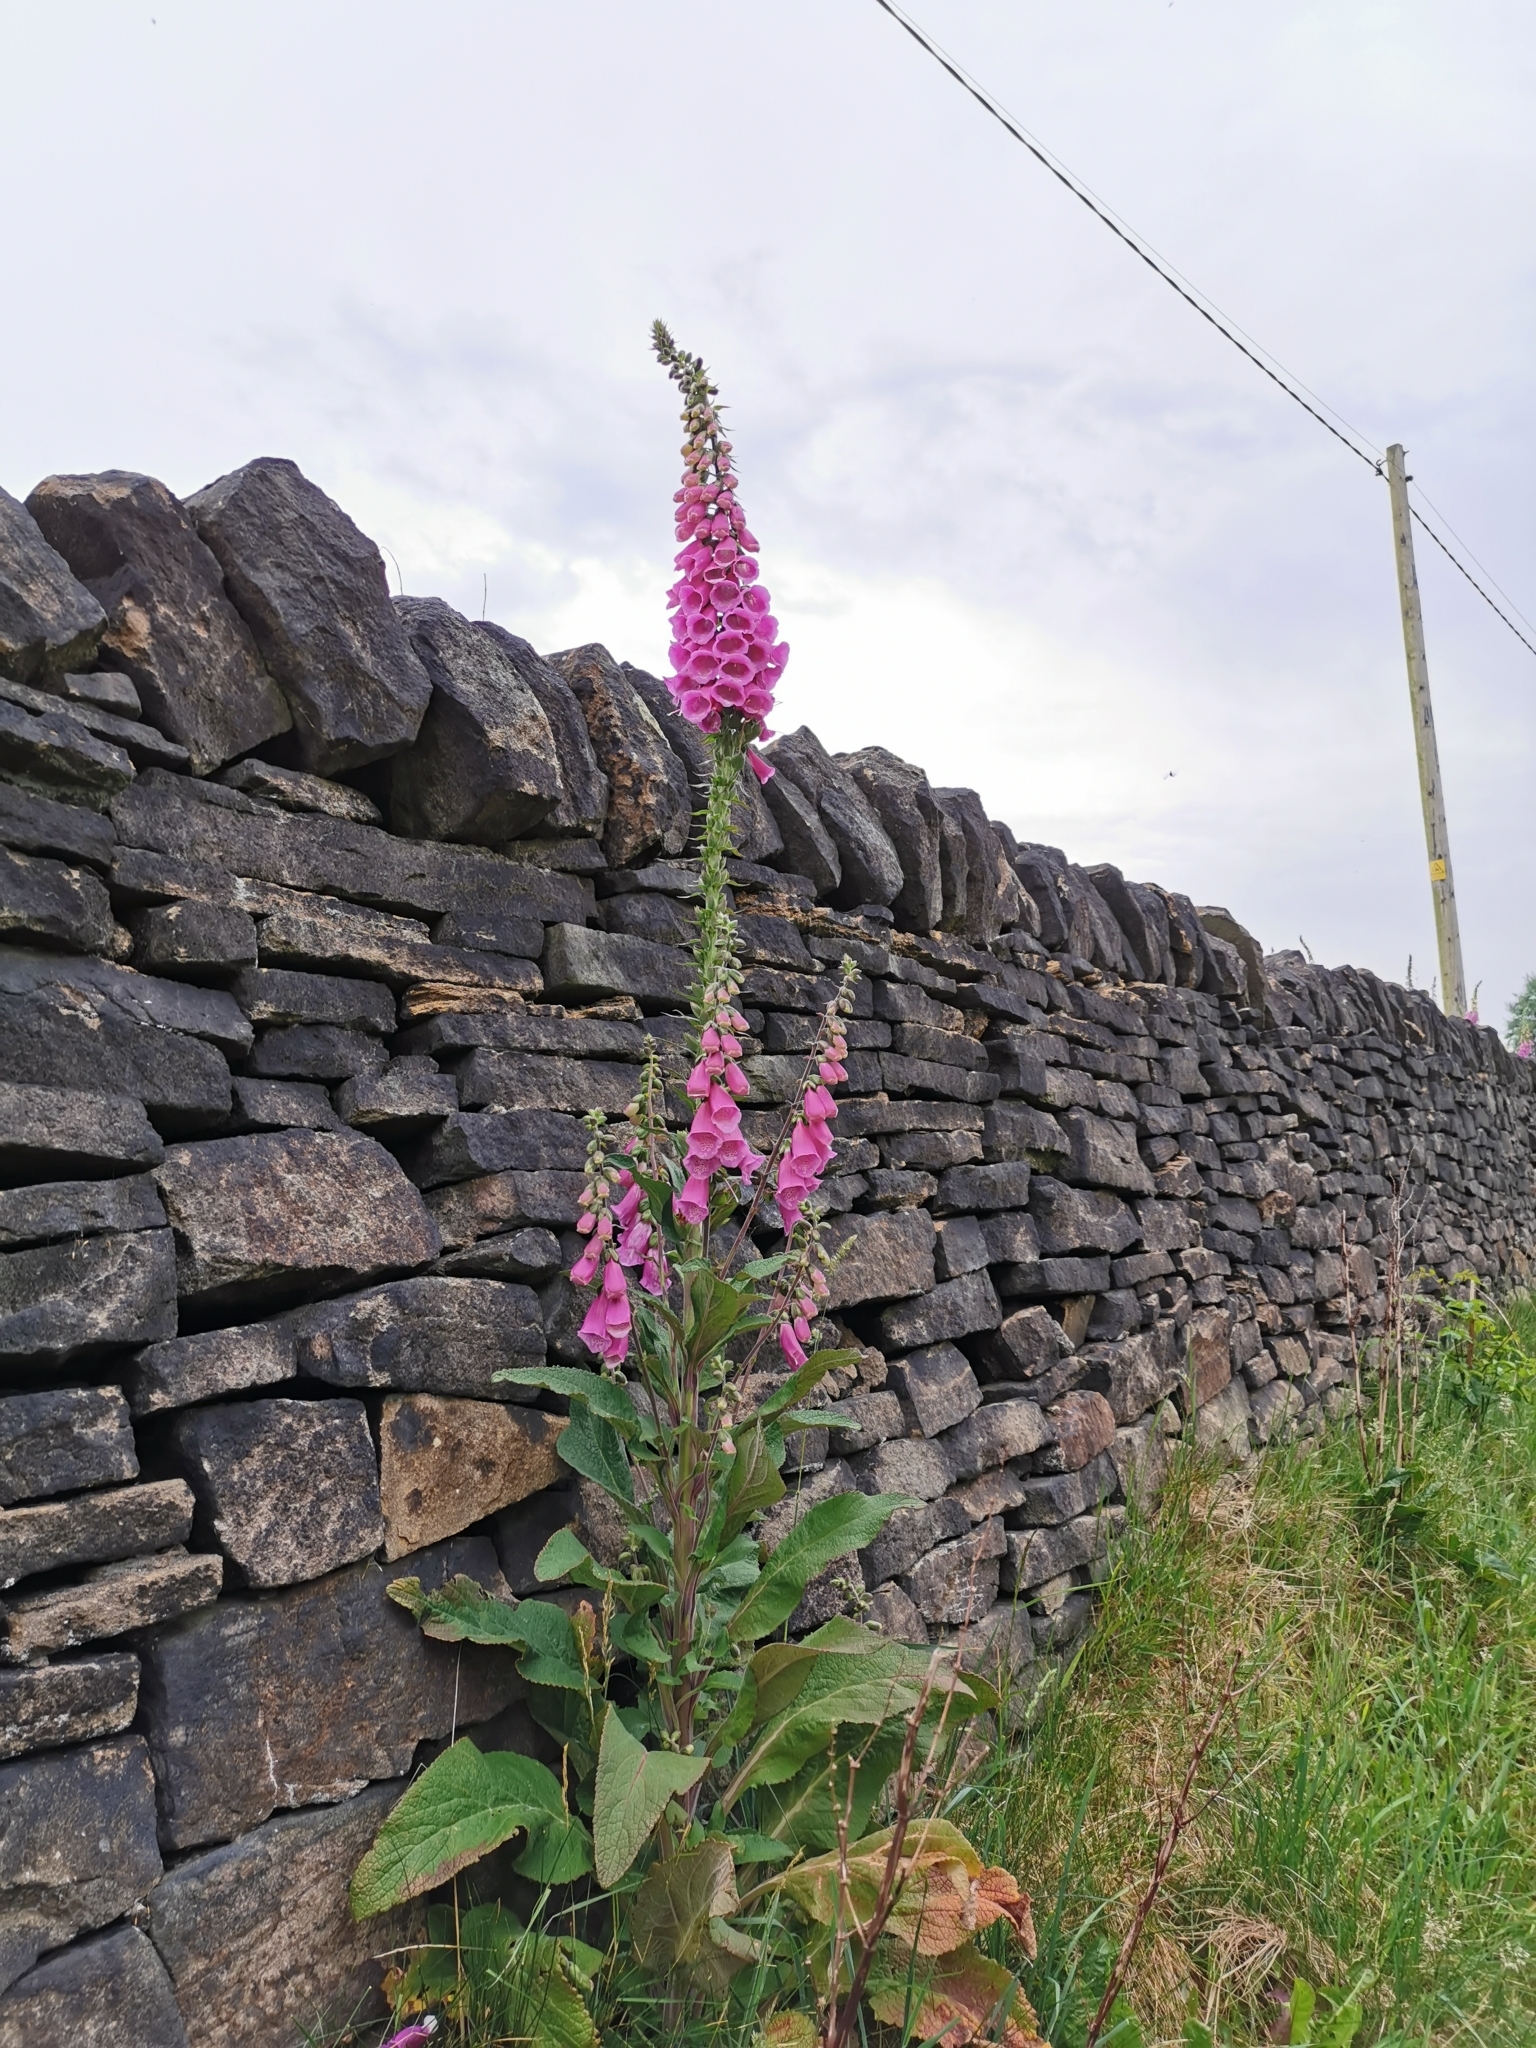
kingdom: Plantae
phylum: Tracheophyta
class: Magnoliopsida
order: Lamiales
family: Plantaginaceae
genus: Digitalis
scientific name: Digitalis purpurea
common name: Foxglove
